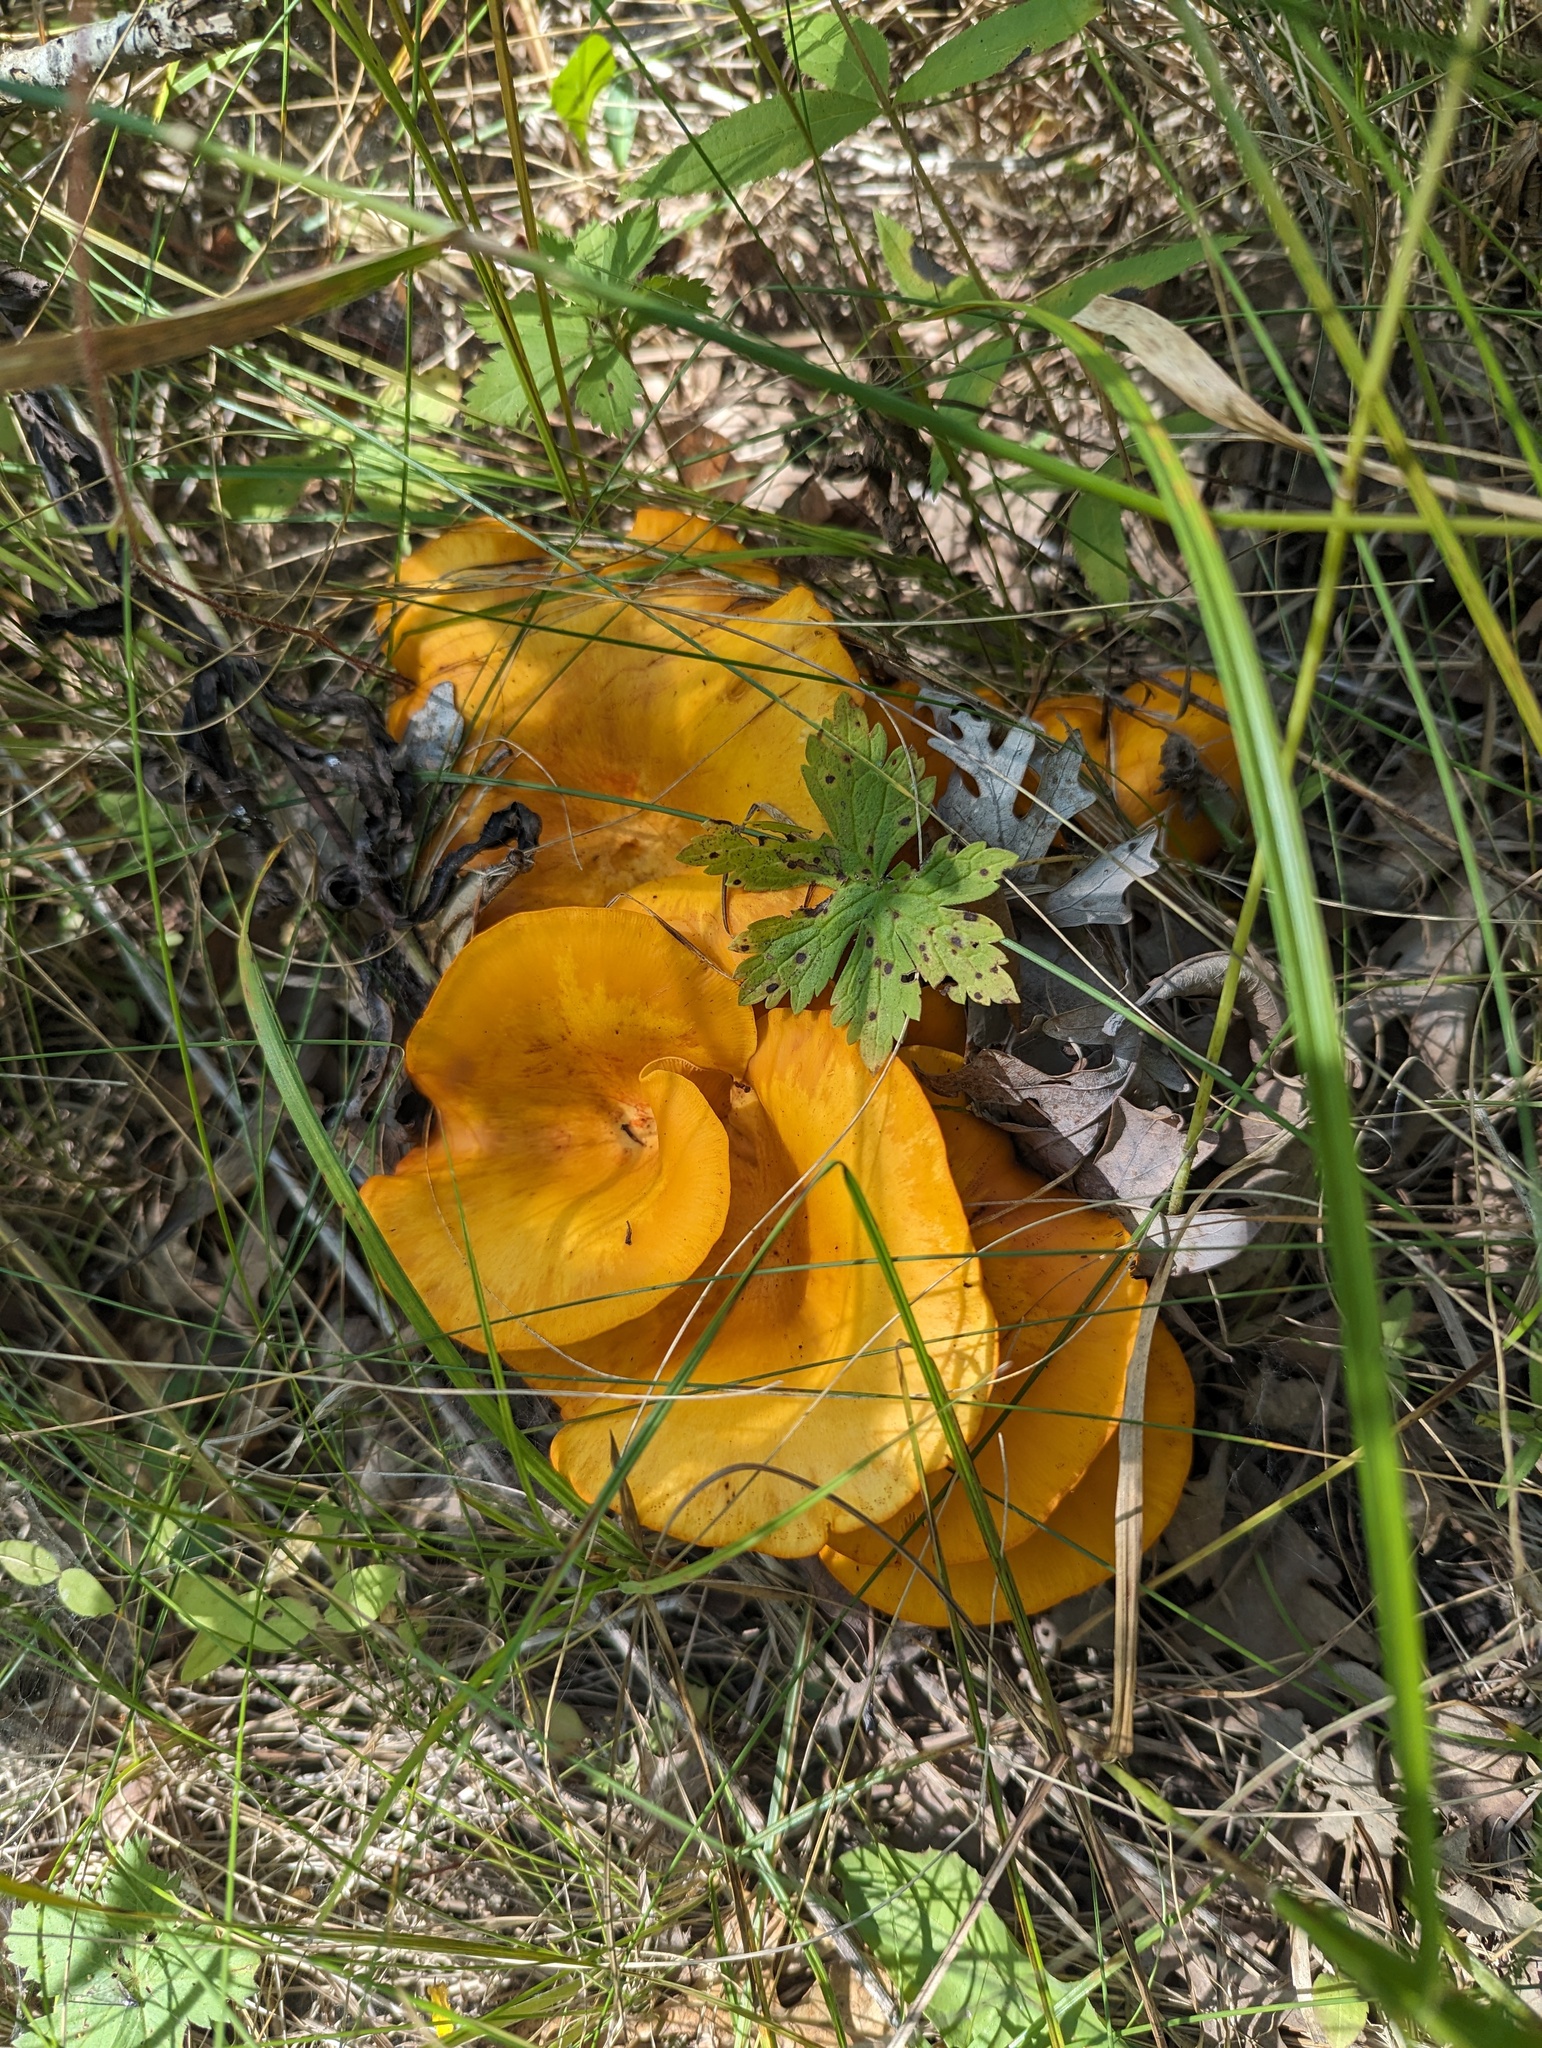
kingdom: Fungi
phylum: Basidiomycota
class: Agaricomycetes
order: Agaricales
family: Omphalotaceae
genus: Omphalotus
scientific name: Omphalotus illudens
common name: Jack o lantern
